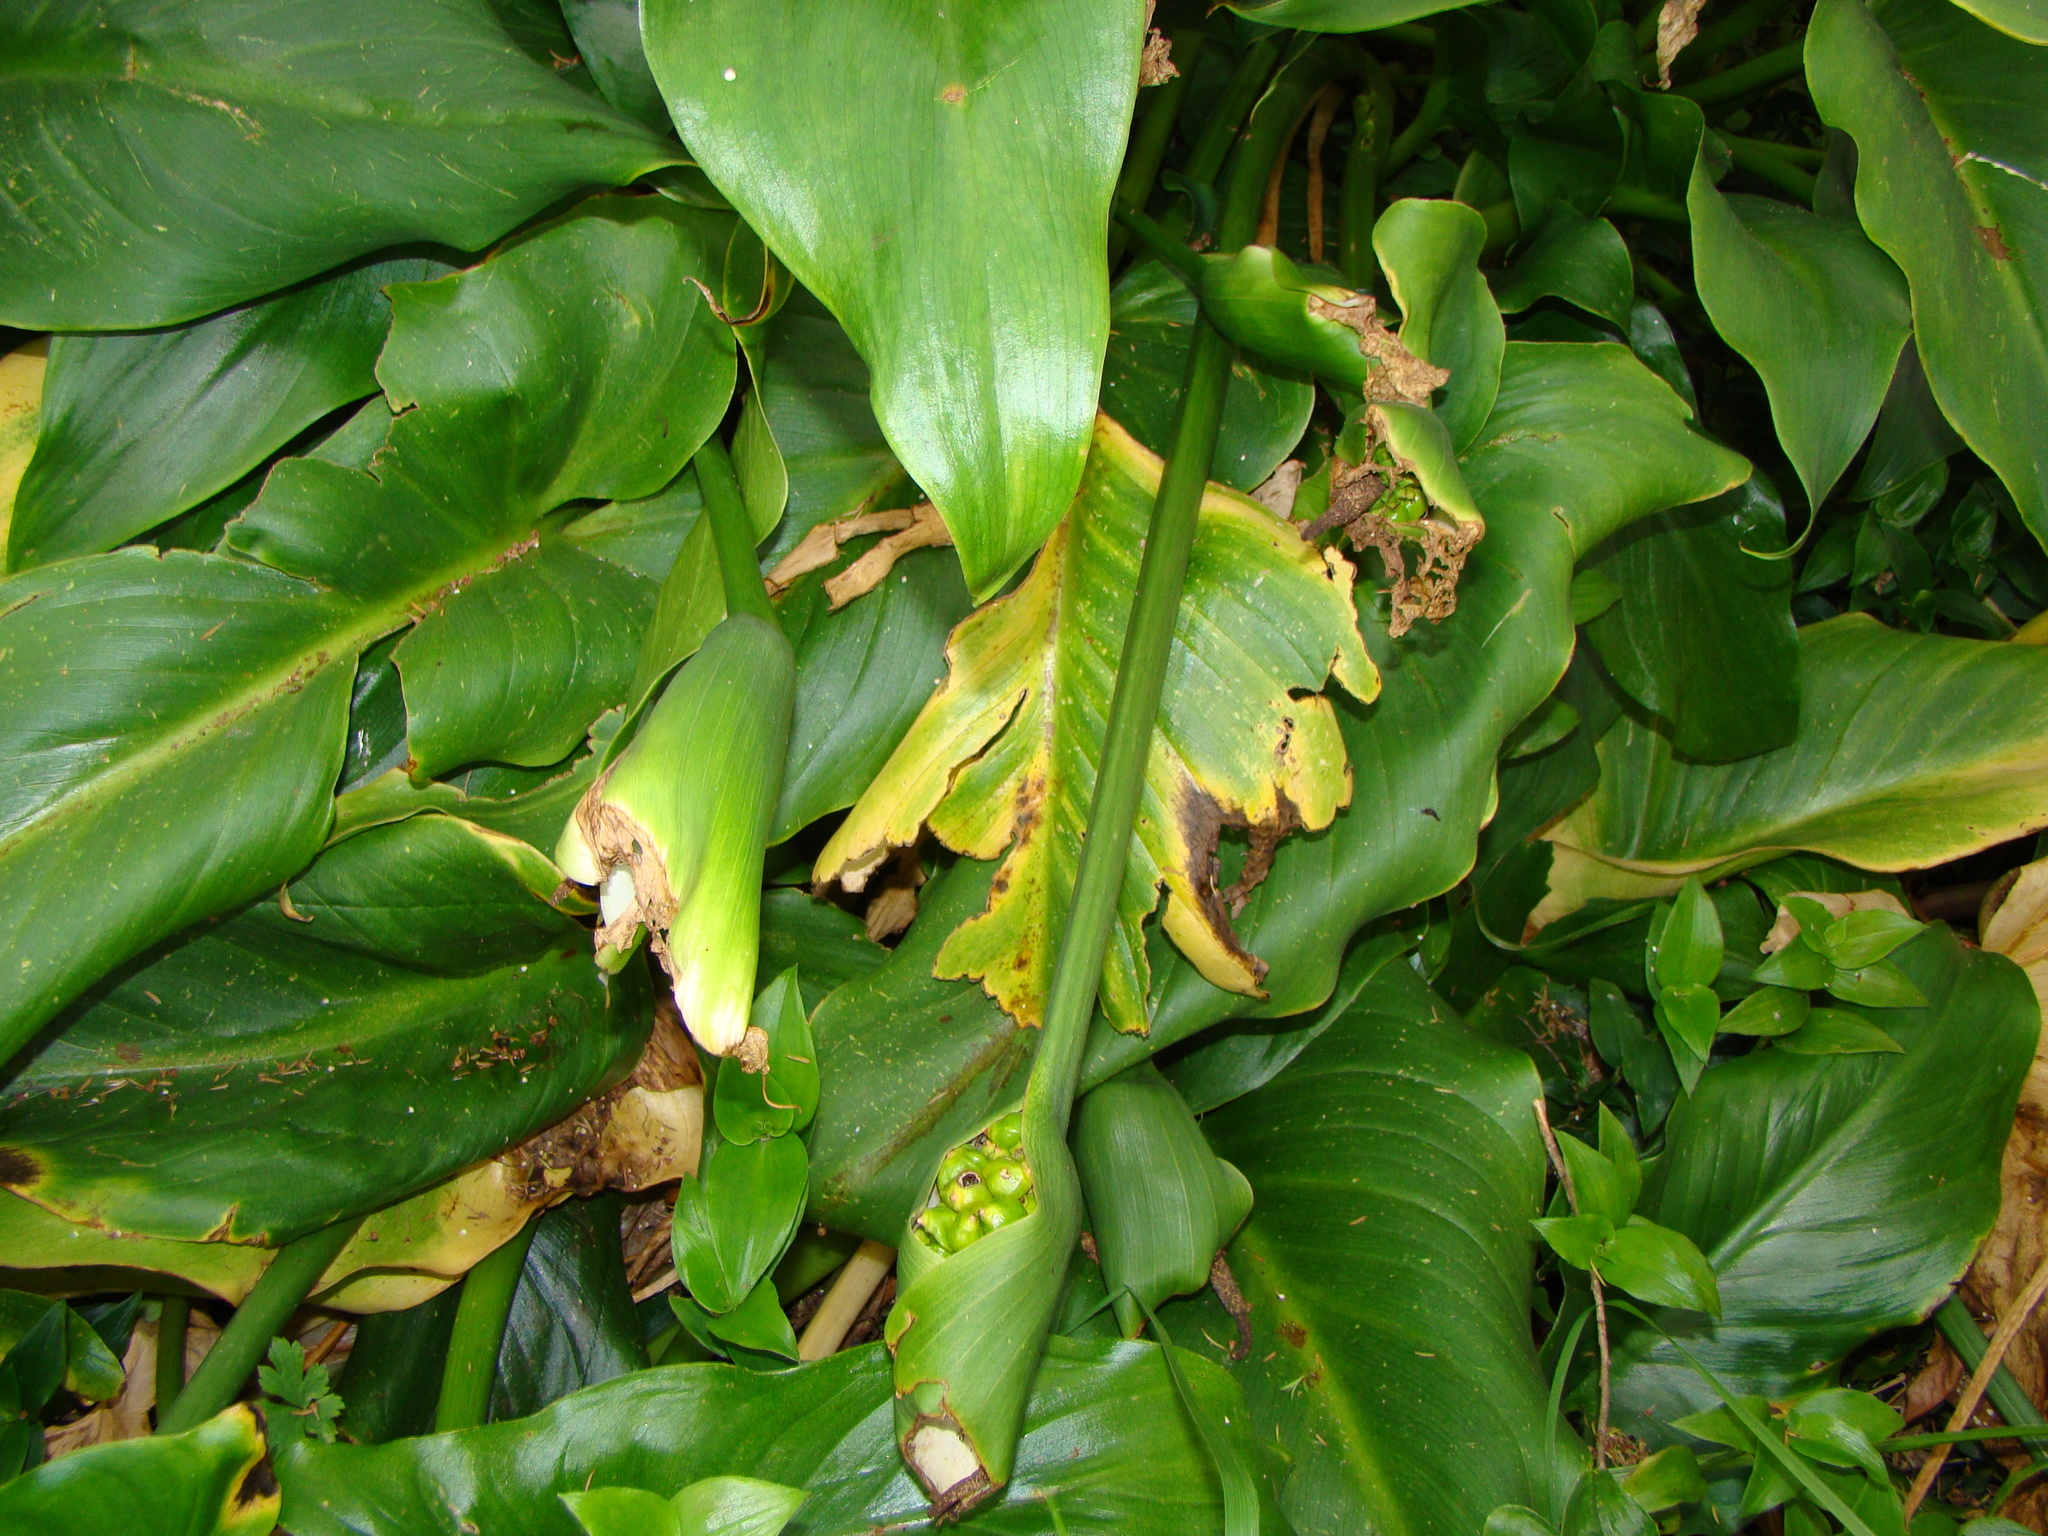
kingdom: Plantae
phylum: Tracheophyta
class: Liliopsida
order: Alismatales
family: Araceae
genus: Zantedeschia
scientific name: Zantedeschia aethiopica
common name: Altar-lily
